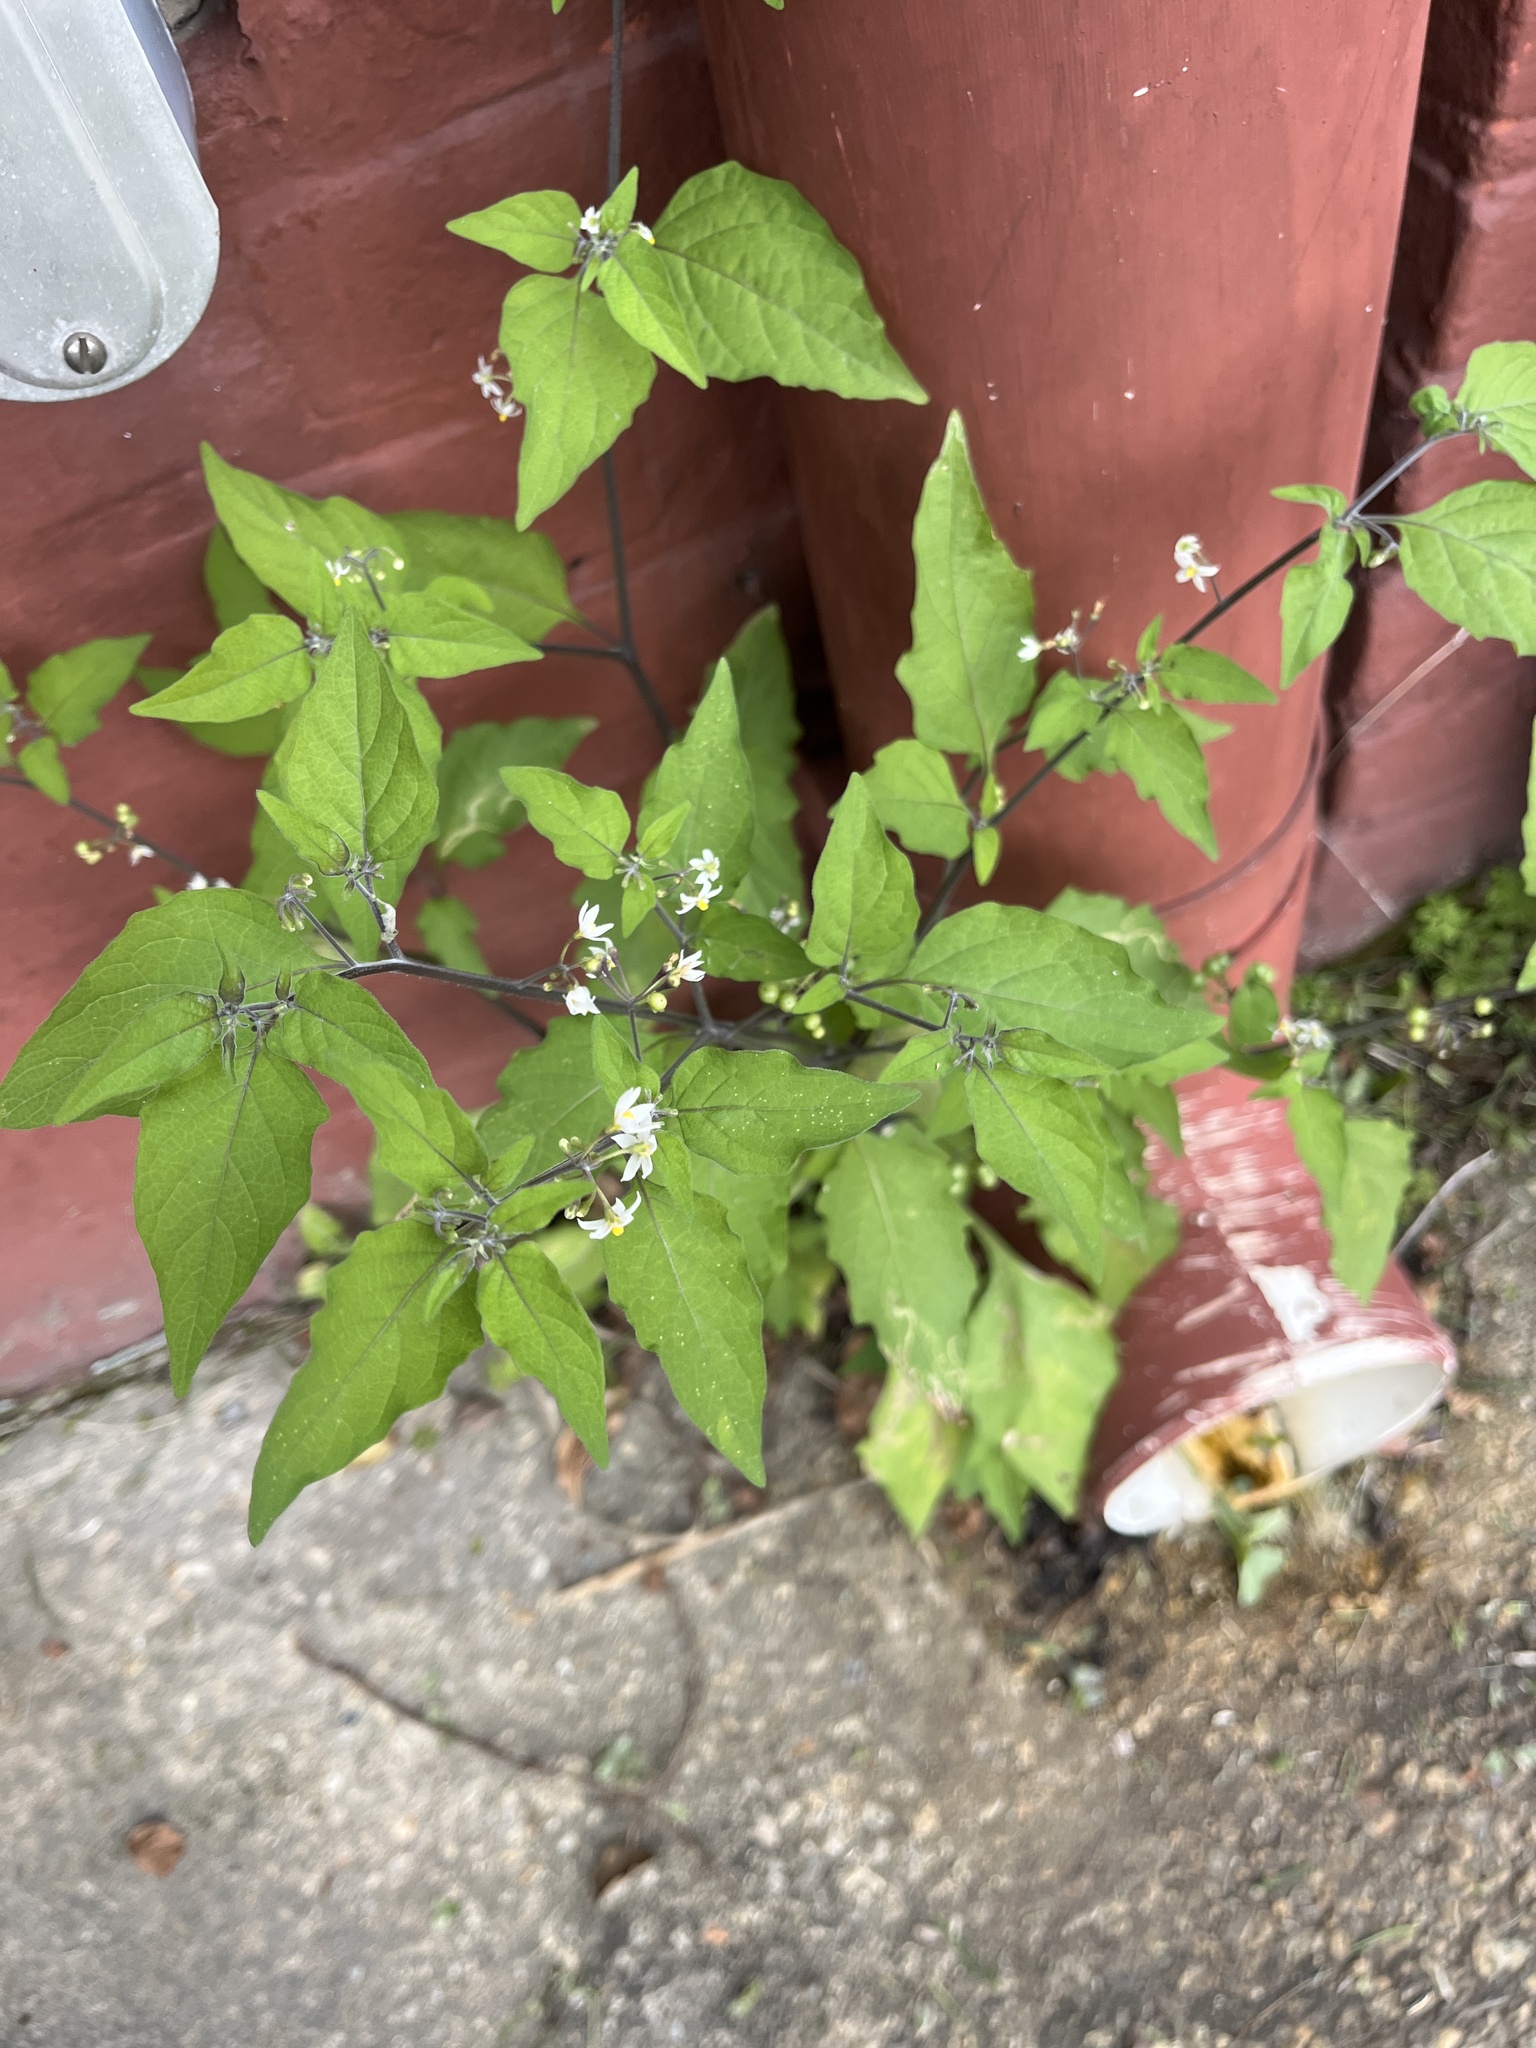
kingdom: Plantae
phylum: Tracheophyta
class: Magnoliopsida
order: Solanales
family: Solanaceae
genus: Solanum
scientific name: Solanum americanum
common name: American black nightshade
